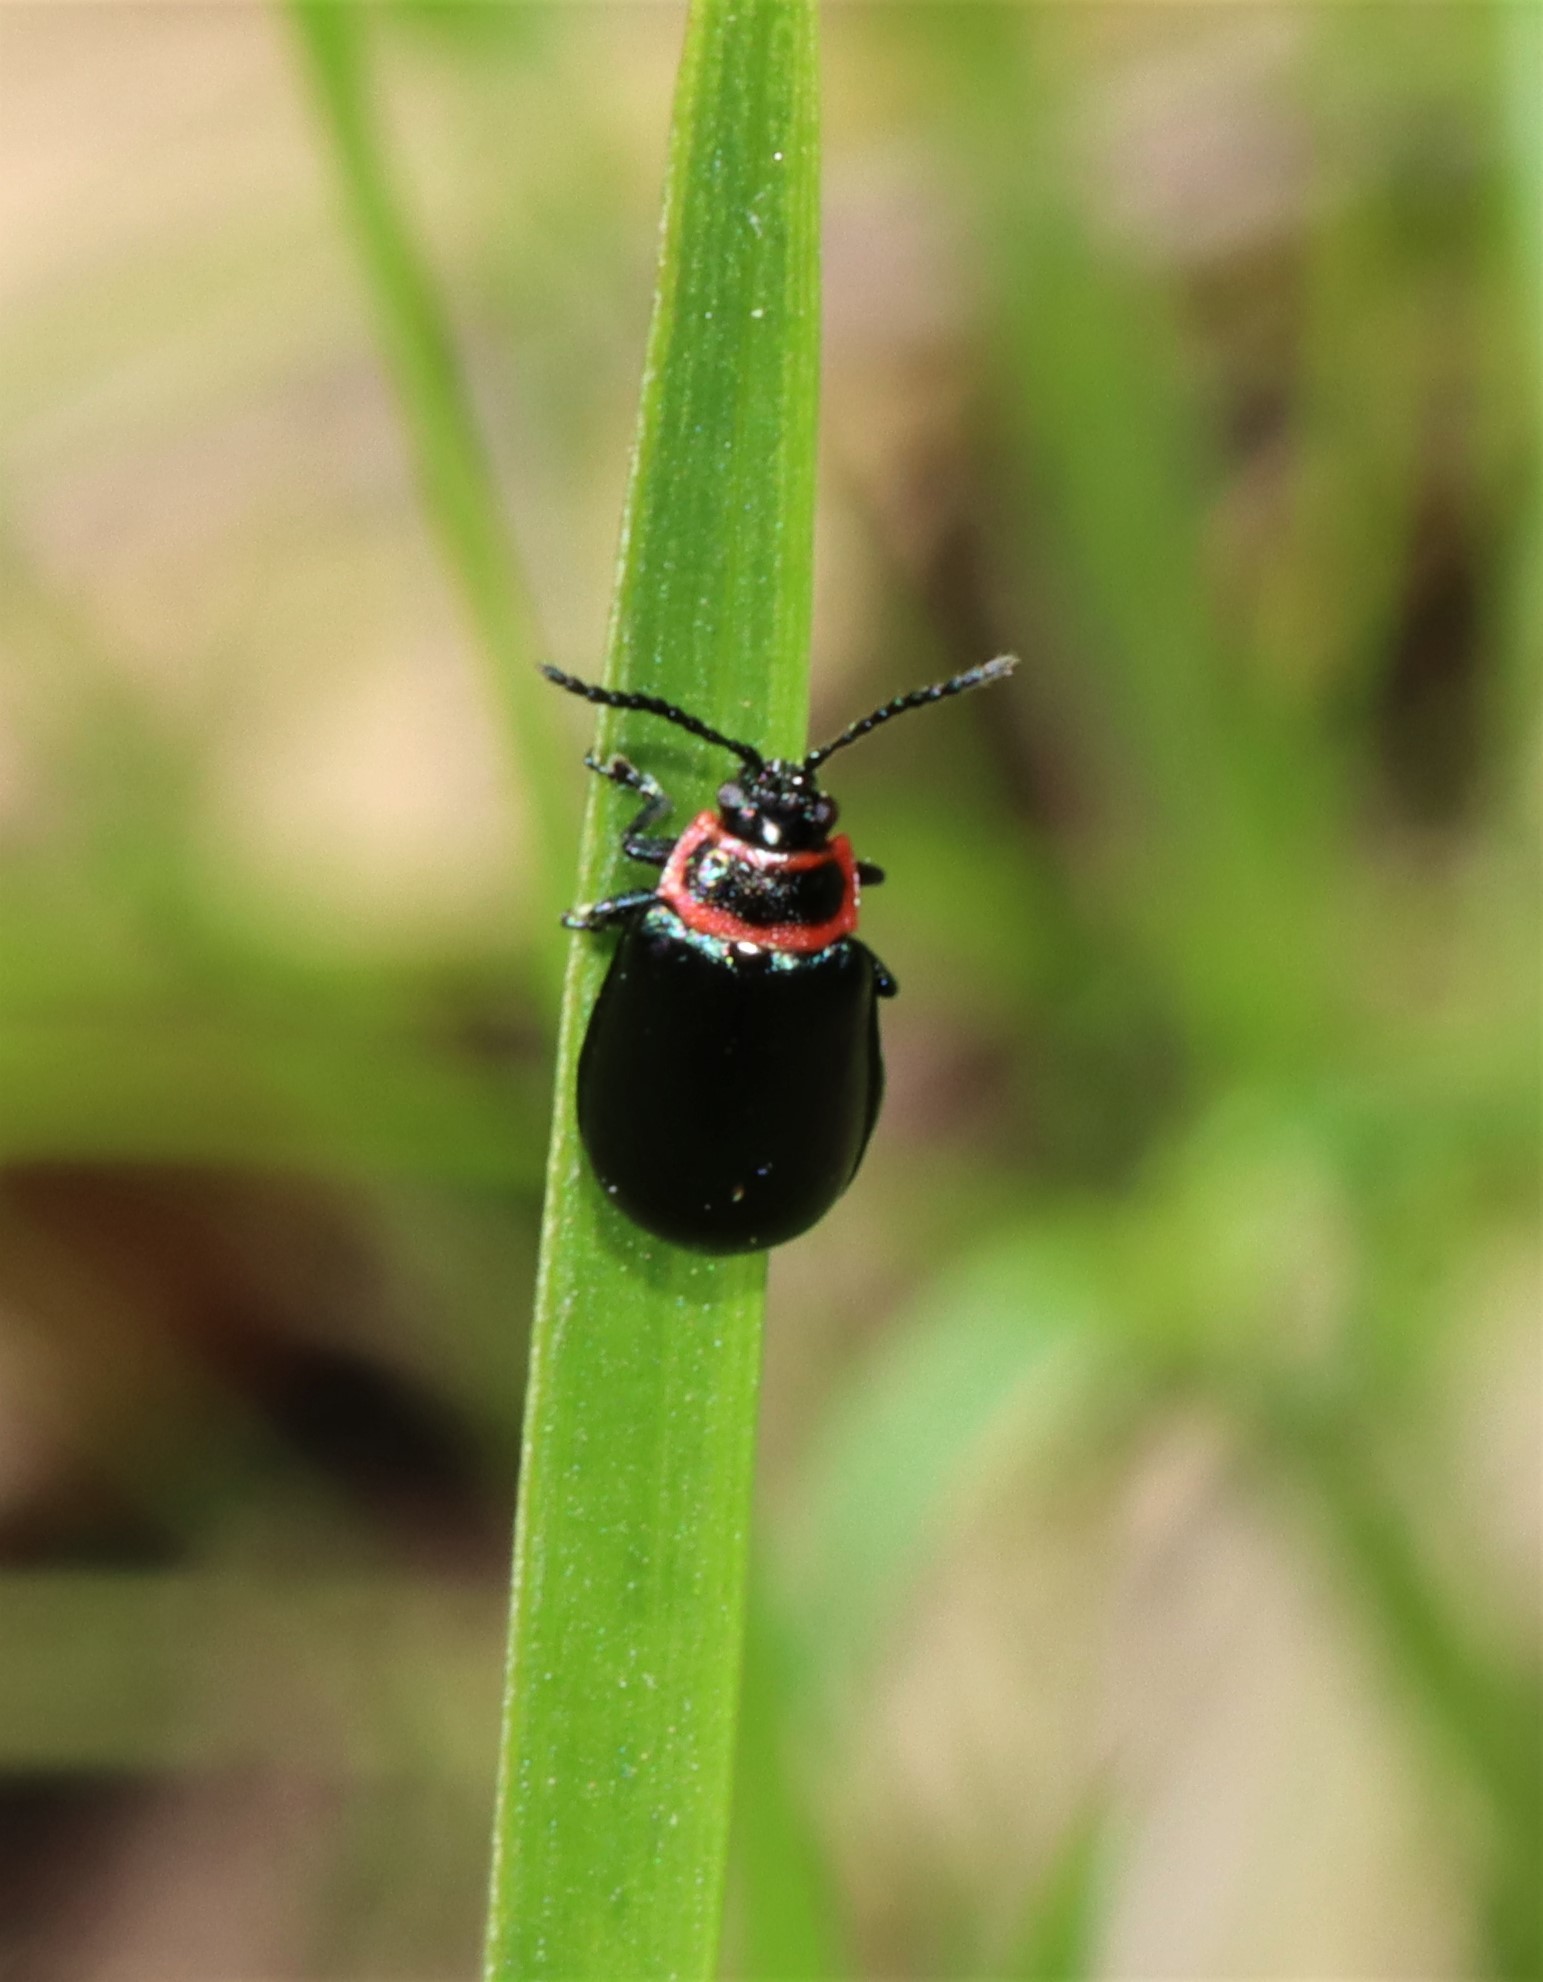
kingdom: Animalia
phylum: Arthropoda
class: Insecta
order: Coleoptera
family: Chrysomelidae
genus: Kuschelina
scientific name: Kuschelina vians
